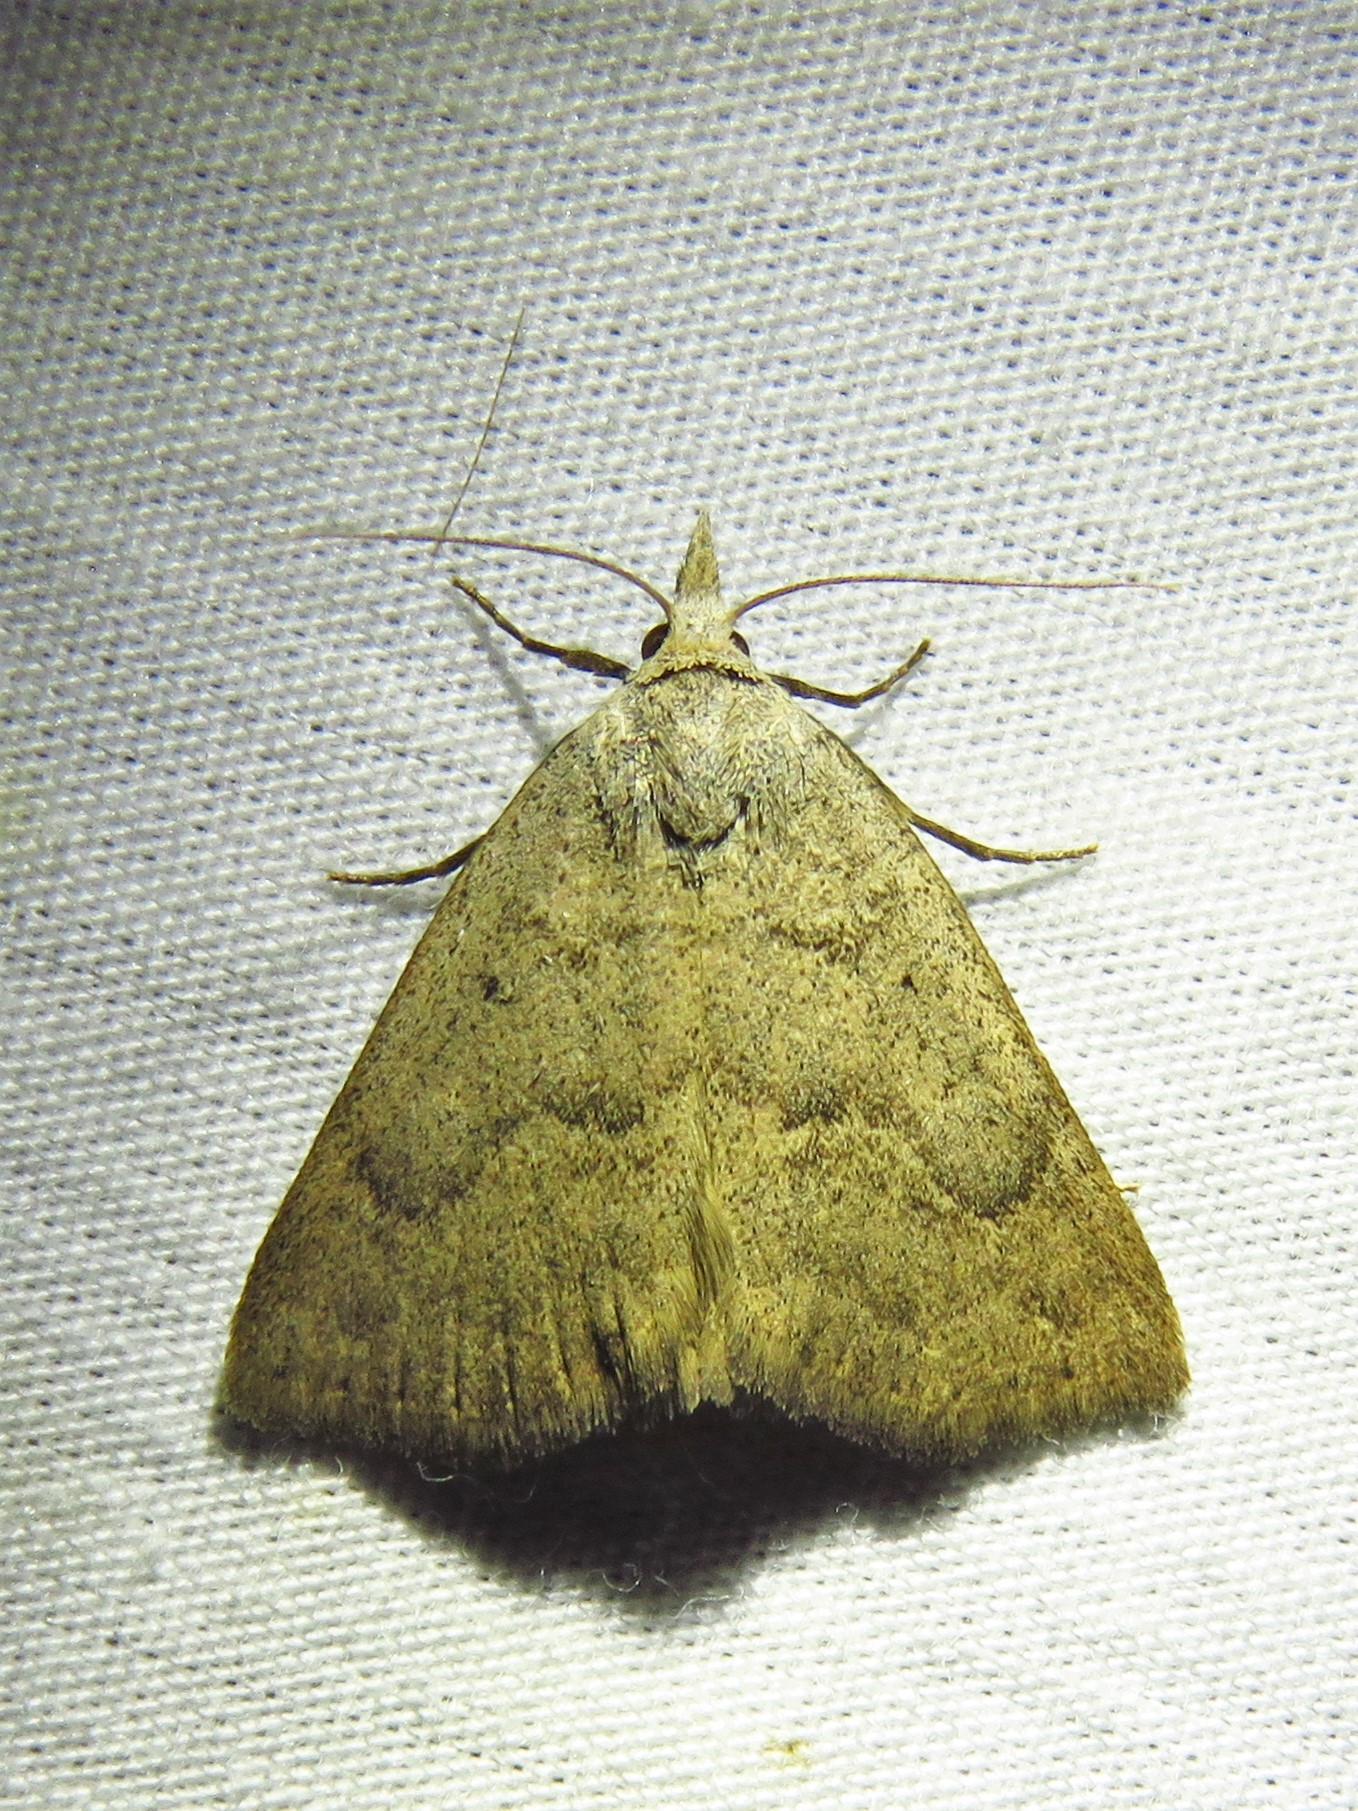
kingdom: Animalia
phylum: Arthropoda
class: Insecta
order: Lepidoptera
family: Erebidae
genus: Pseudorgyia
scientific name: Pseudorgyia versuta
